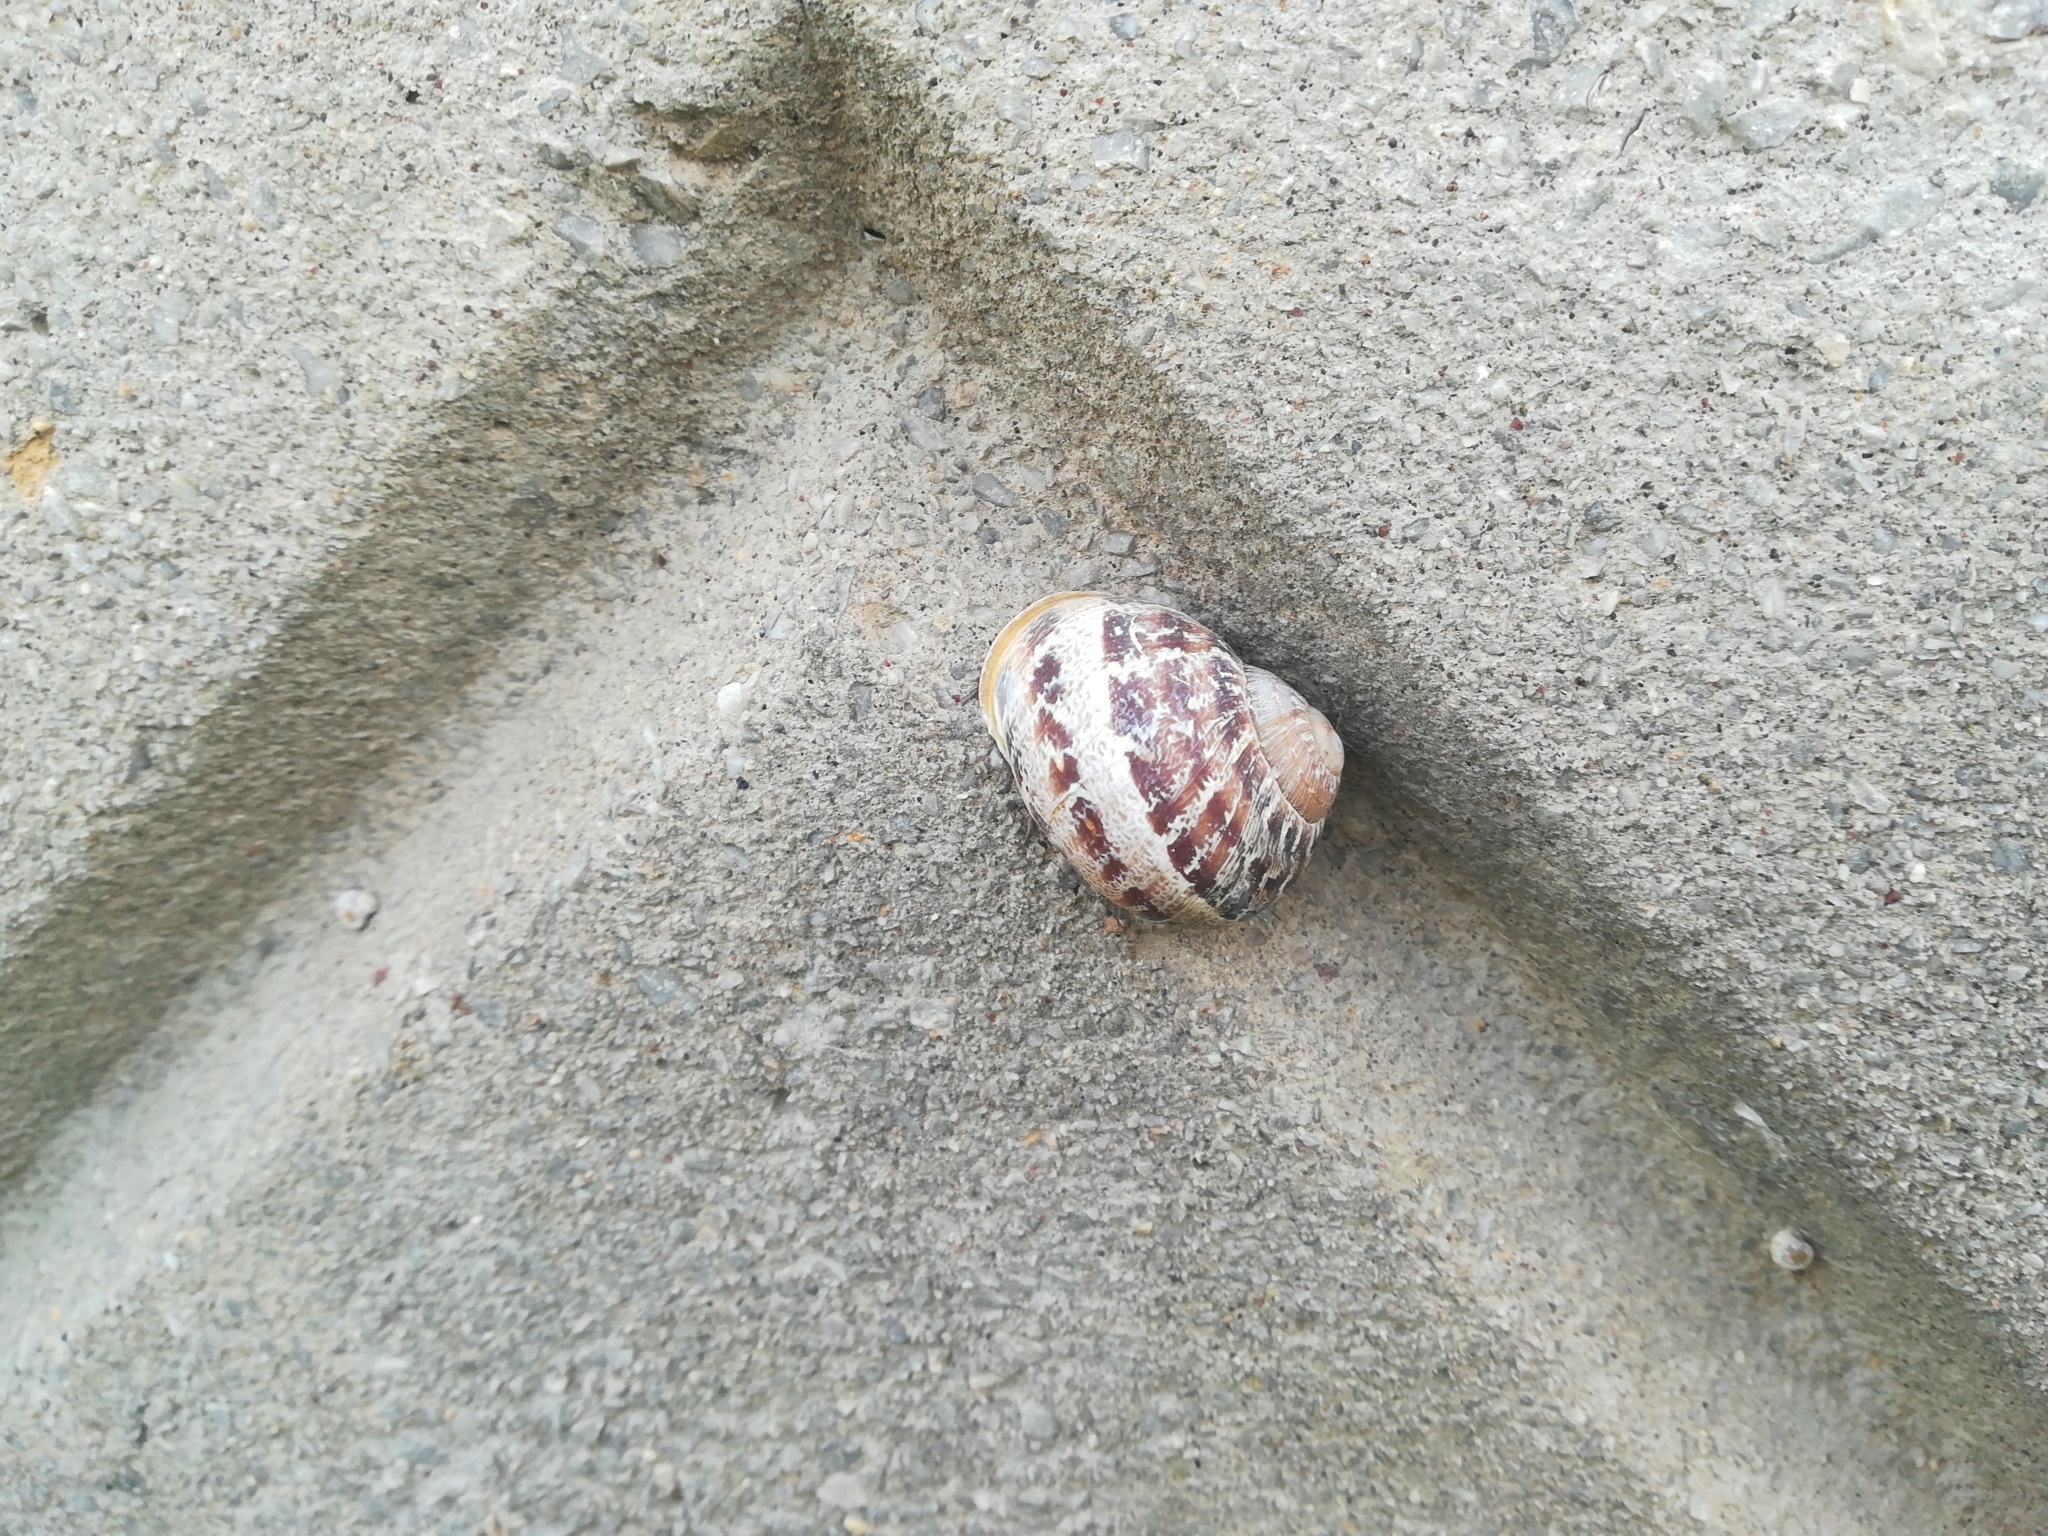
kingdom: Animalia
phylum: Mollusca
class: Gastropoda
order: Stylommatophora
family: Helicidae
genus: Cornu
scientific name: Cornu aspersum
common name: Brown garden snail
